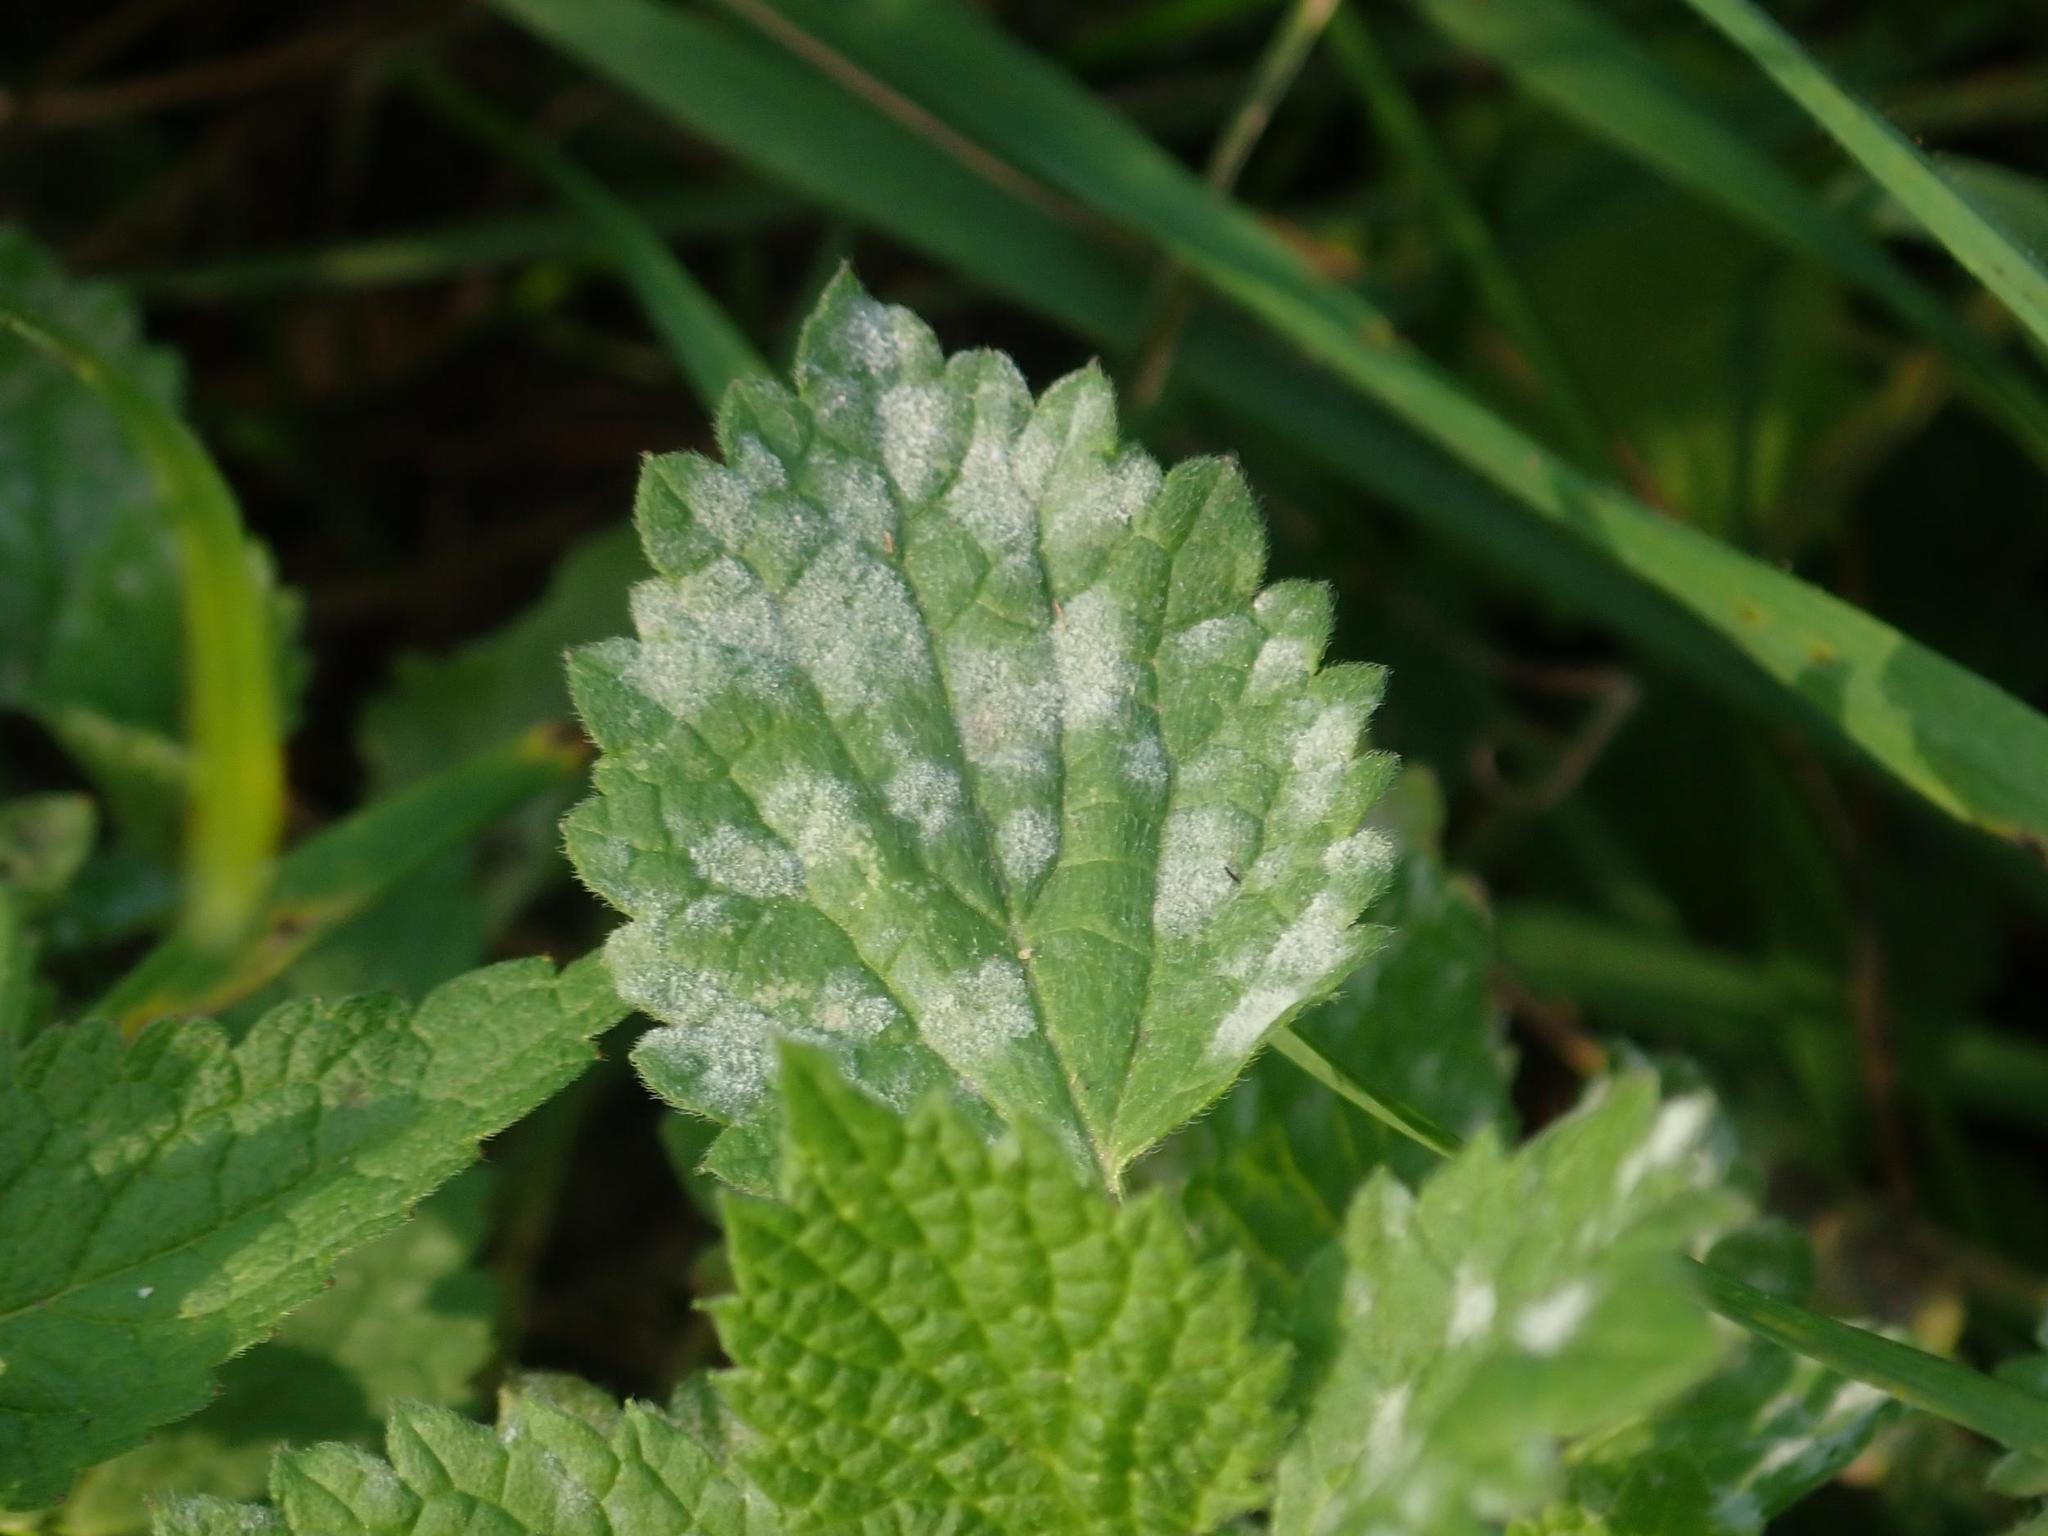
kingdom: Fungi
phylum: Ascomycota
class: Leotiomycetes
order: Helotiales
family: Erysiphaceae
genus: Neoerysiphe
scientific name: Neoerysiphe galeopsidis
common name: Mint mildew
